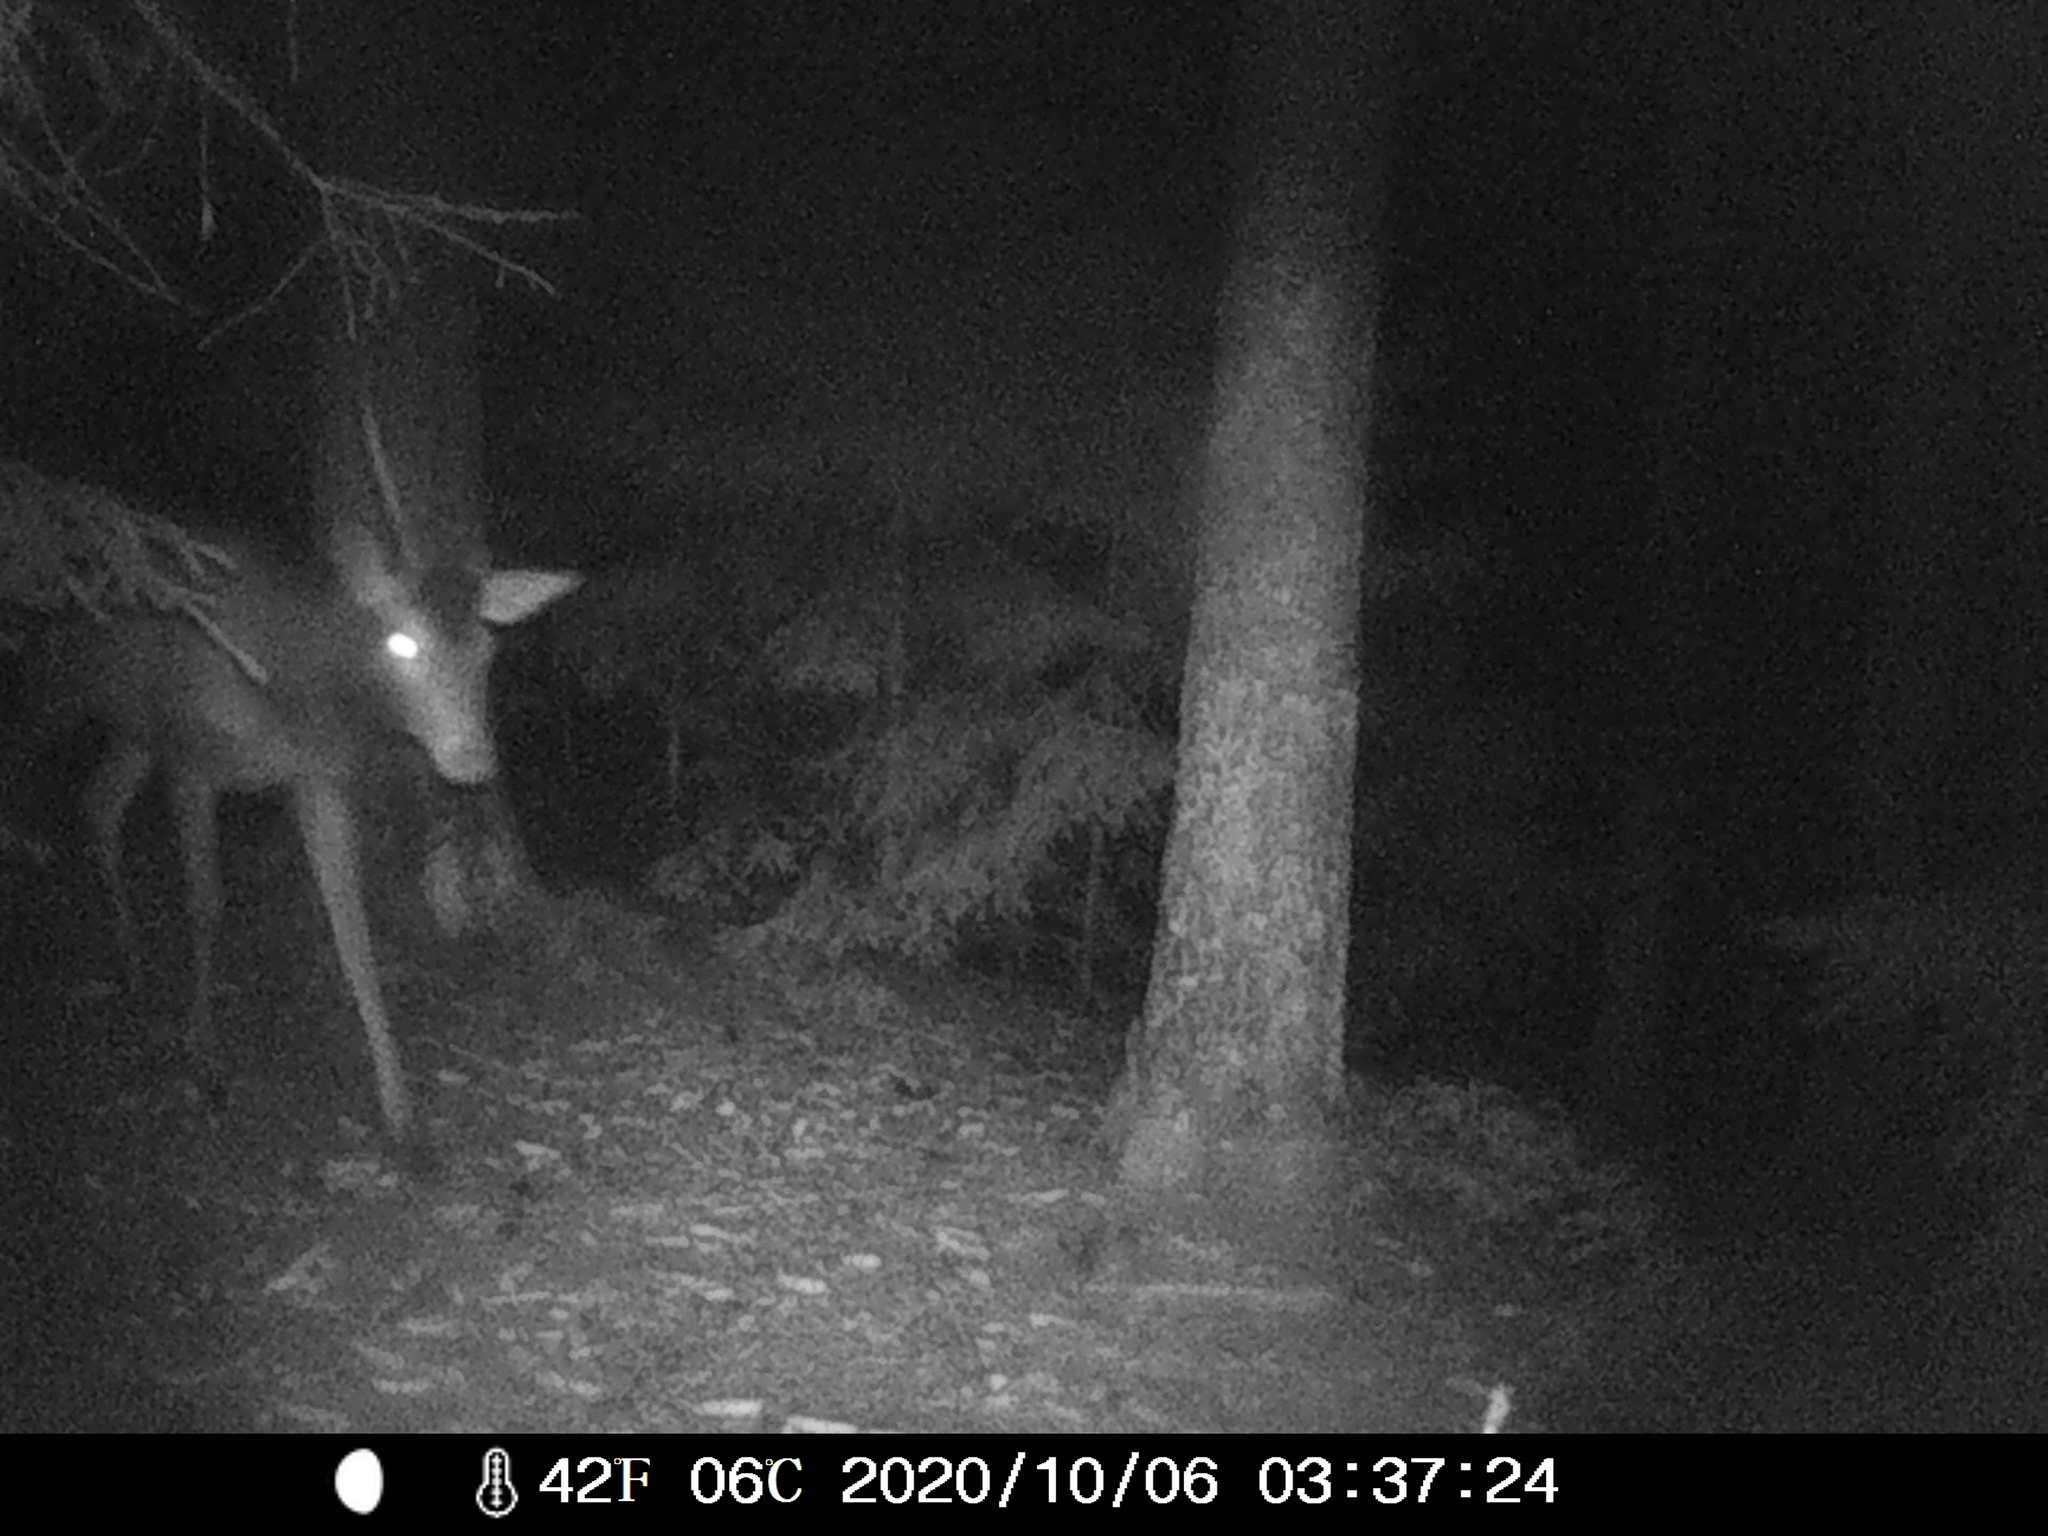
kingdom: Animalia
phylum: Chordata
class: Mammalia
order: Artiodactyla
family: Cervidae
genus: Cervus
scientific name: Cervus elaphus
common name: Red deer
